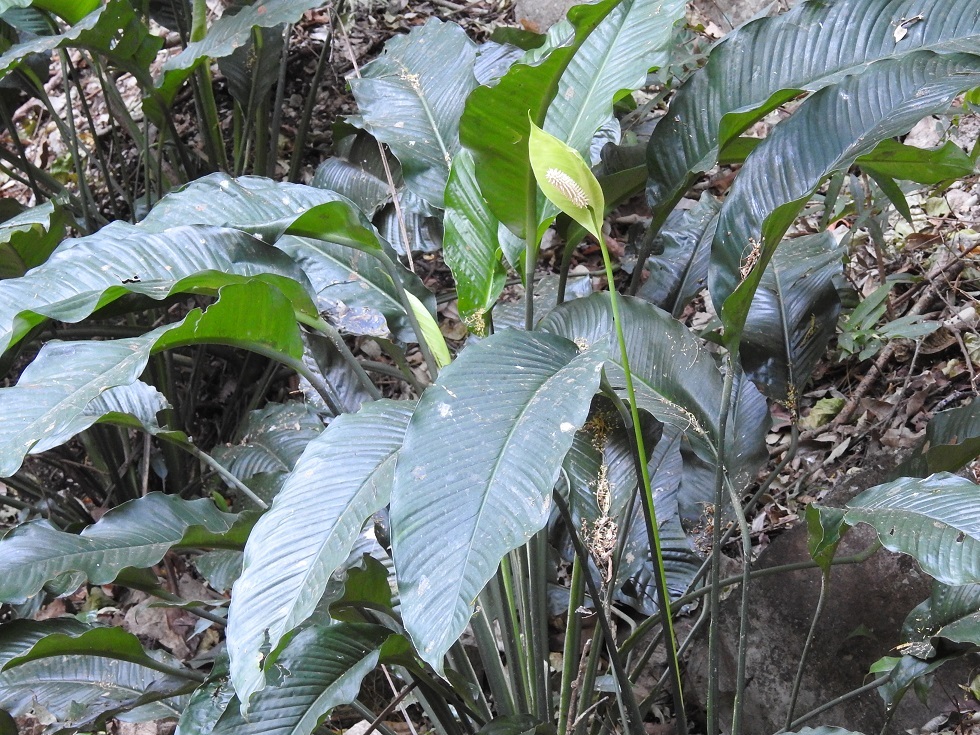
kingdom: Plantae
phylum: Tracheophyta
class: Liliopsida
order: Alismatales
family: Araceae
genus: Spathiphyllum
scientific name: Spathiphyllum cochlearispathum
